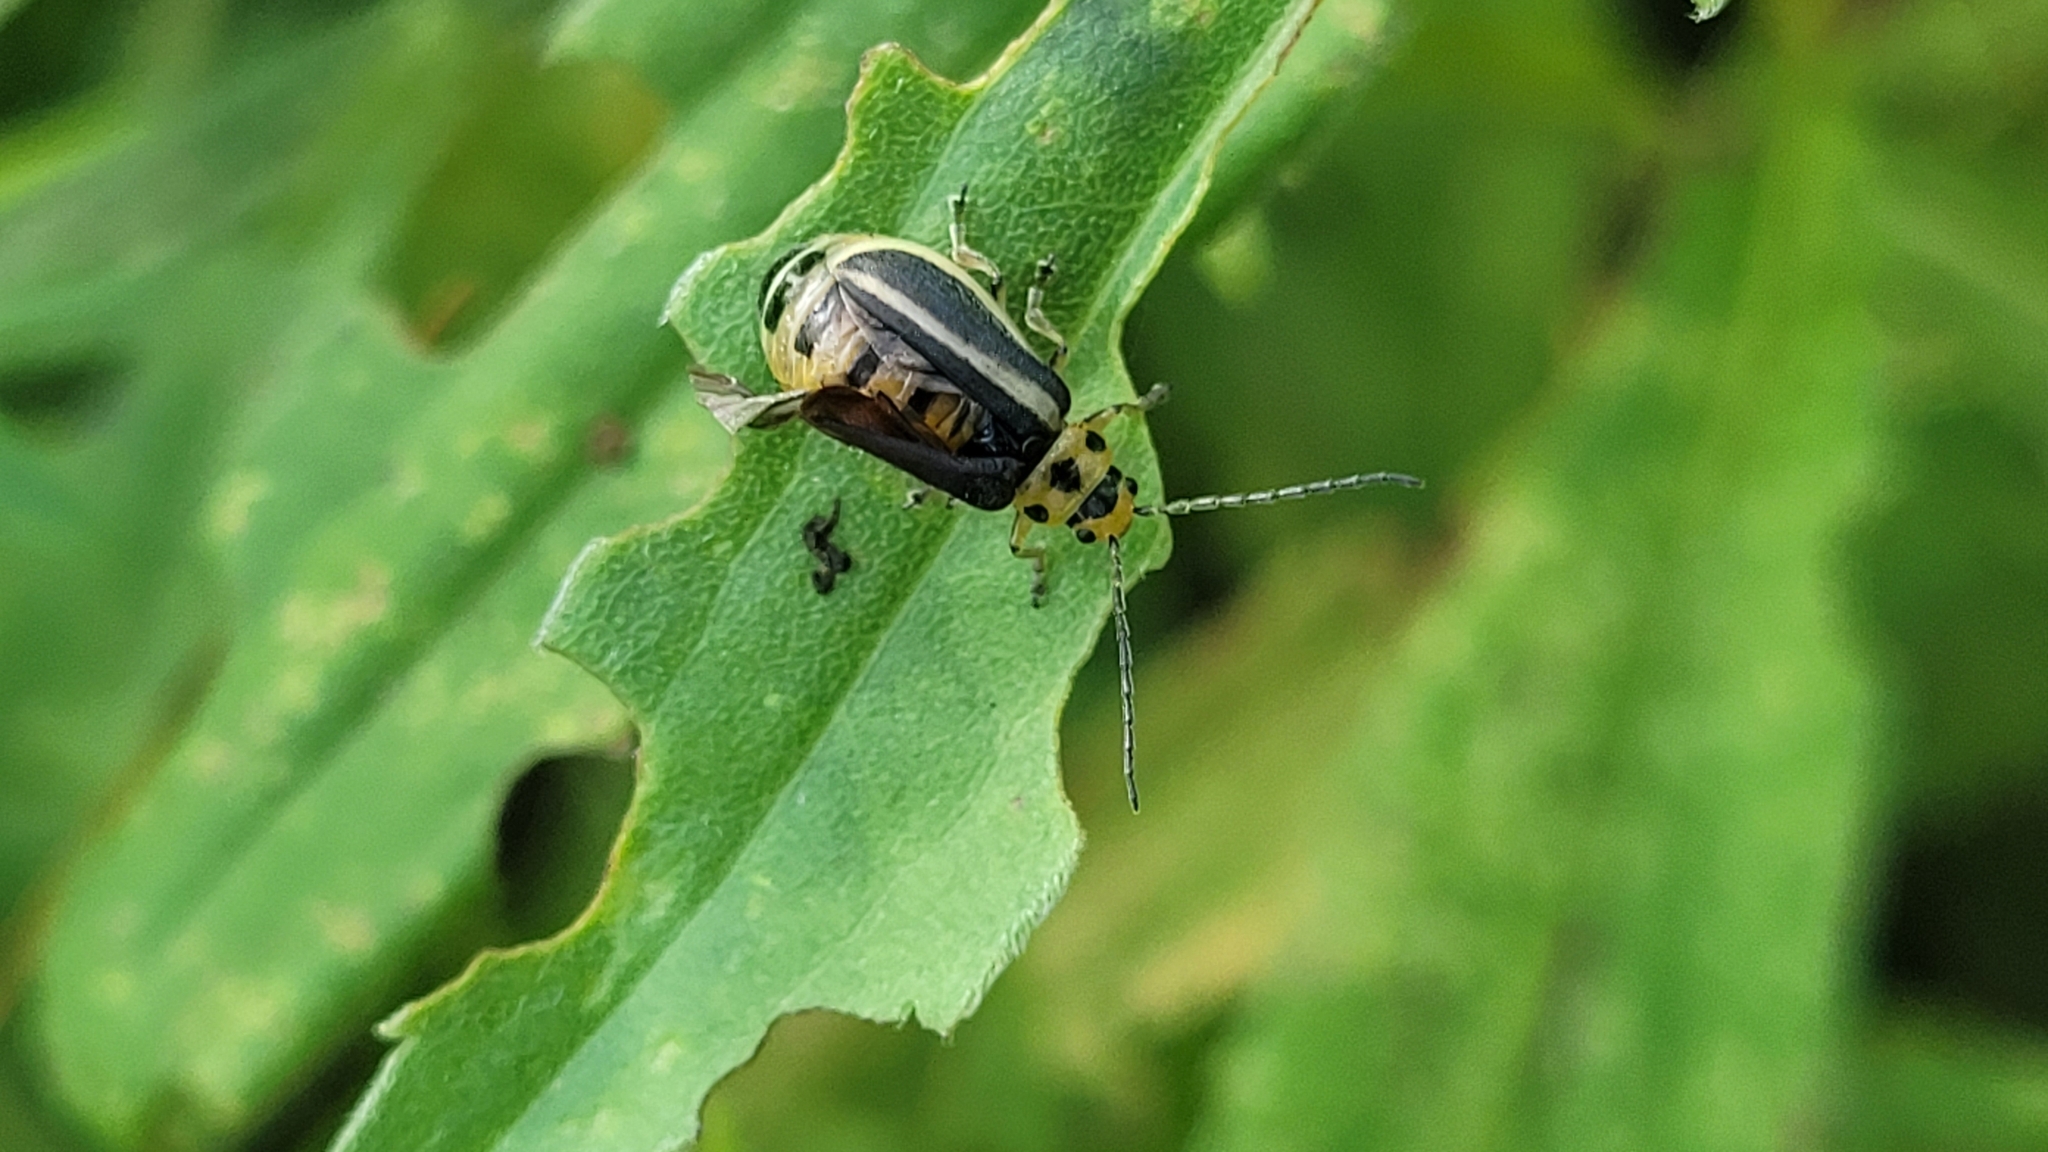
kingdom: Animalia
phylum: Arthropoda
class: Insecta
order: Coleoptera
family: Chrysomelidae
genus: Trirhabda
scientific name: Trirhabda canadensis
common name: Goldenrod leaf beetle
